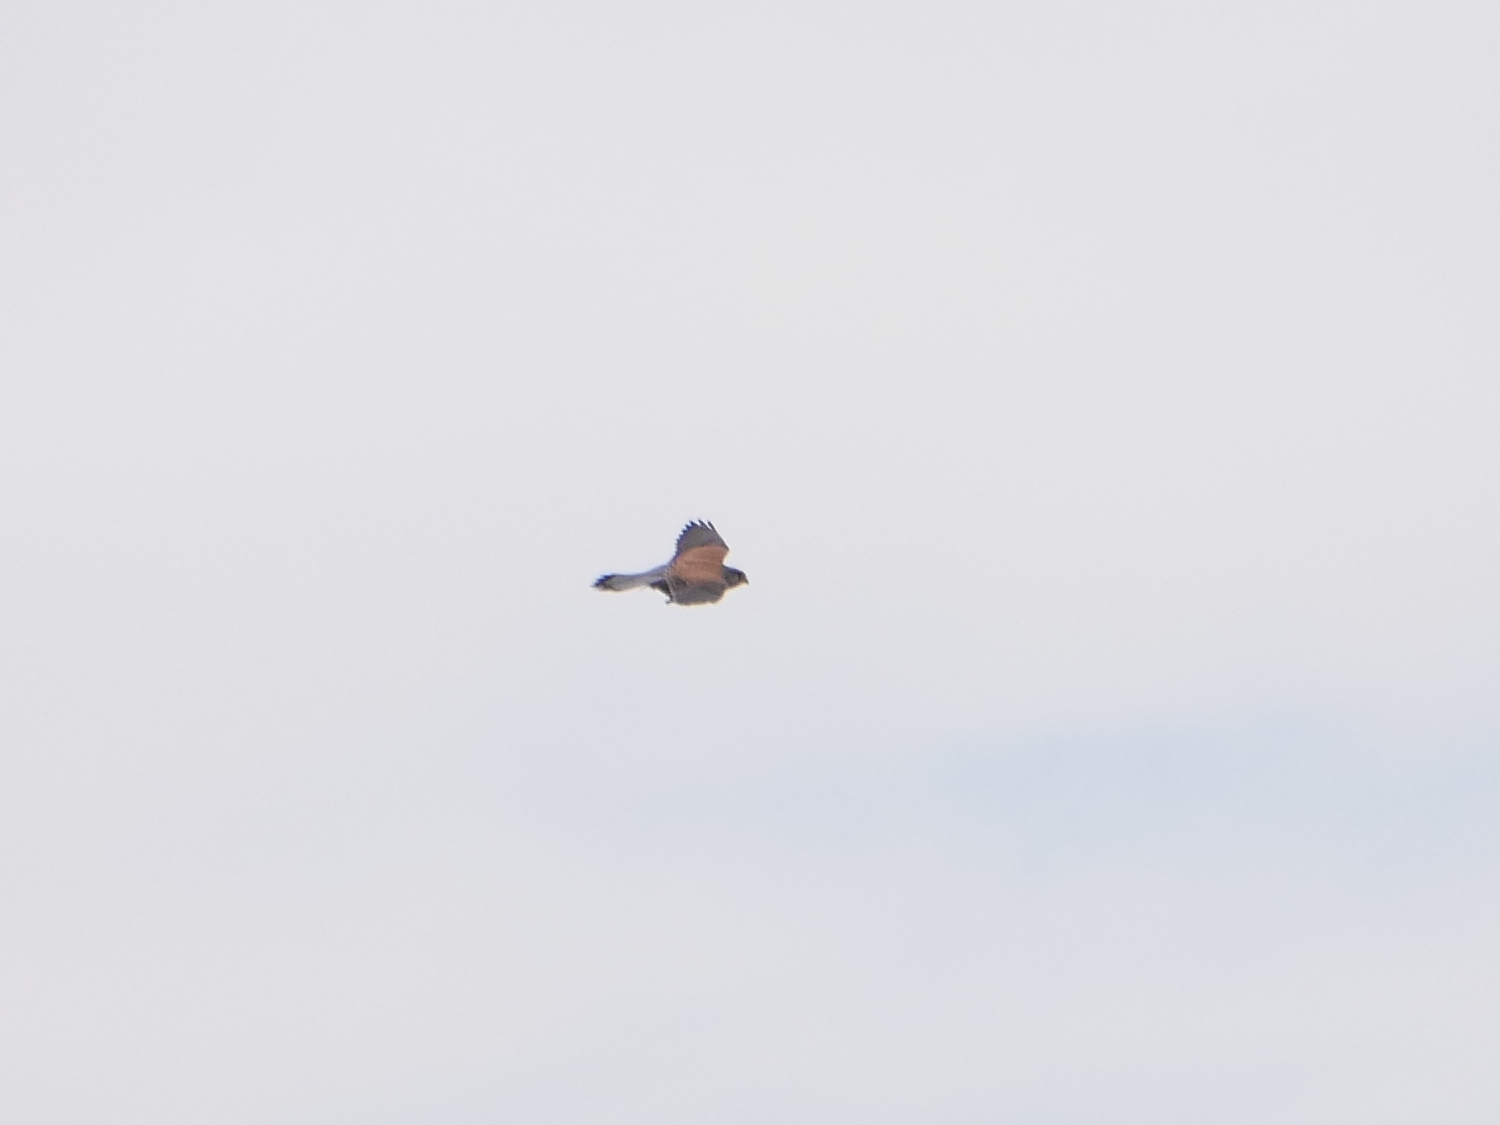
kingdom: Animalia
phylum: Chordata
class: Aves
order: Falconiformes
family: Falconidae
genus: Falco
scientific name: Falco tinnunculus
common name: Common kestrel
